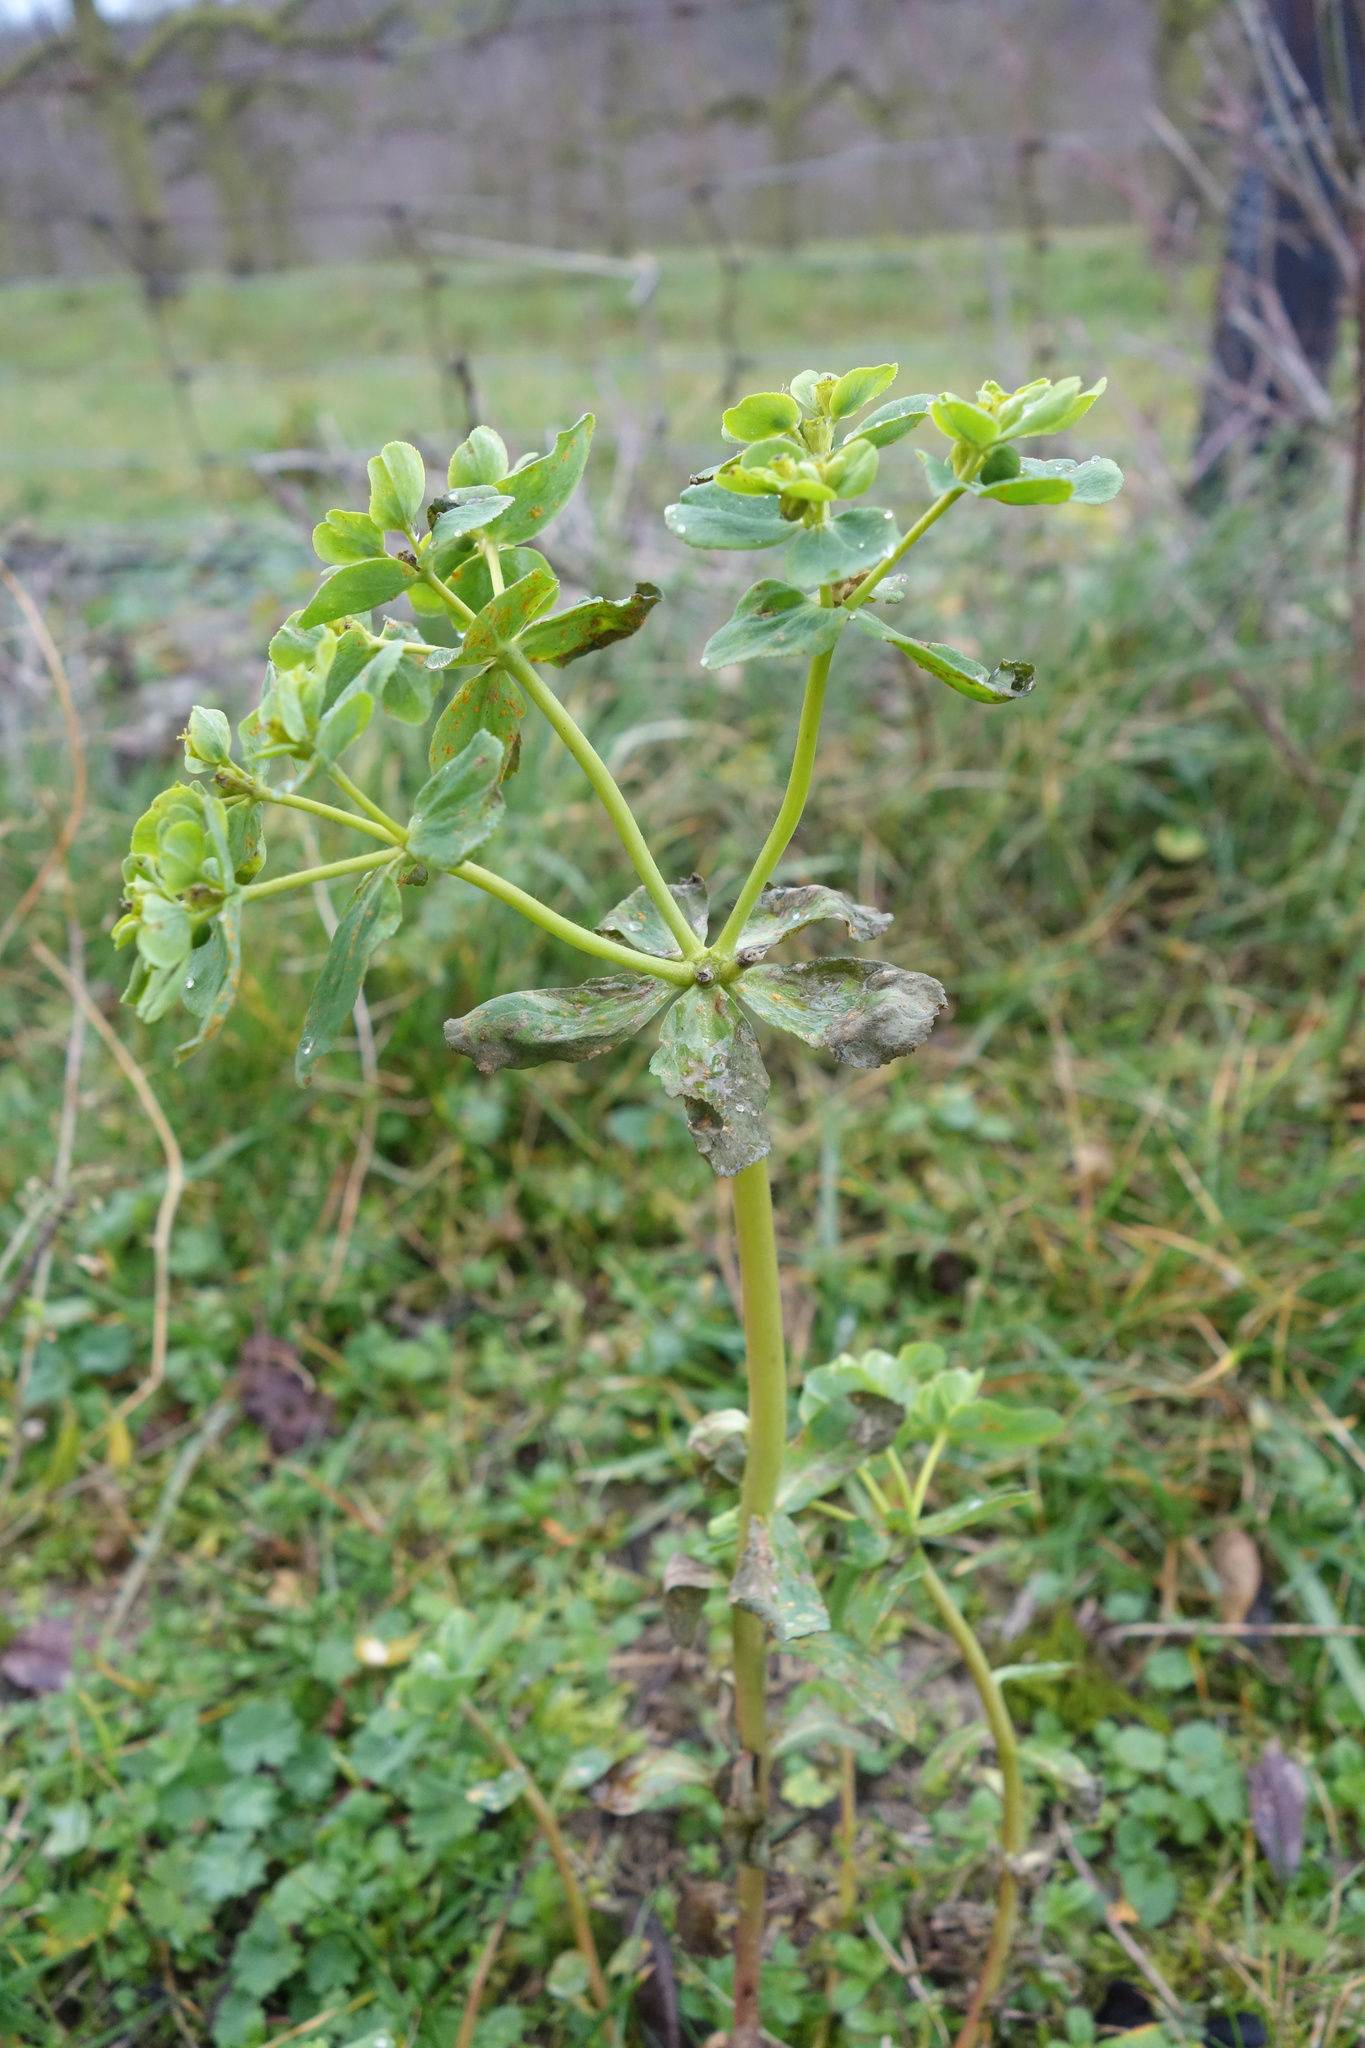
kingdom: Plantae
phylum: Tracheophyta
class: Magnoliopsida
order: Malpighiales
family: Euphorbiaceae
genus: Euphorbia
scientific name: Euphorbia helioscopia
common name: Sun spurge
